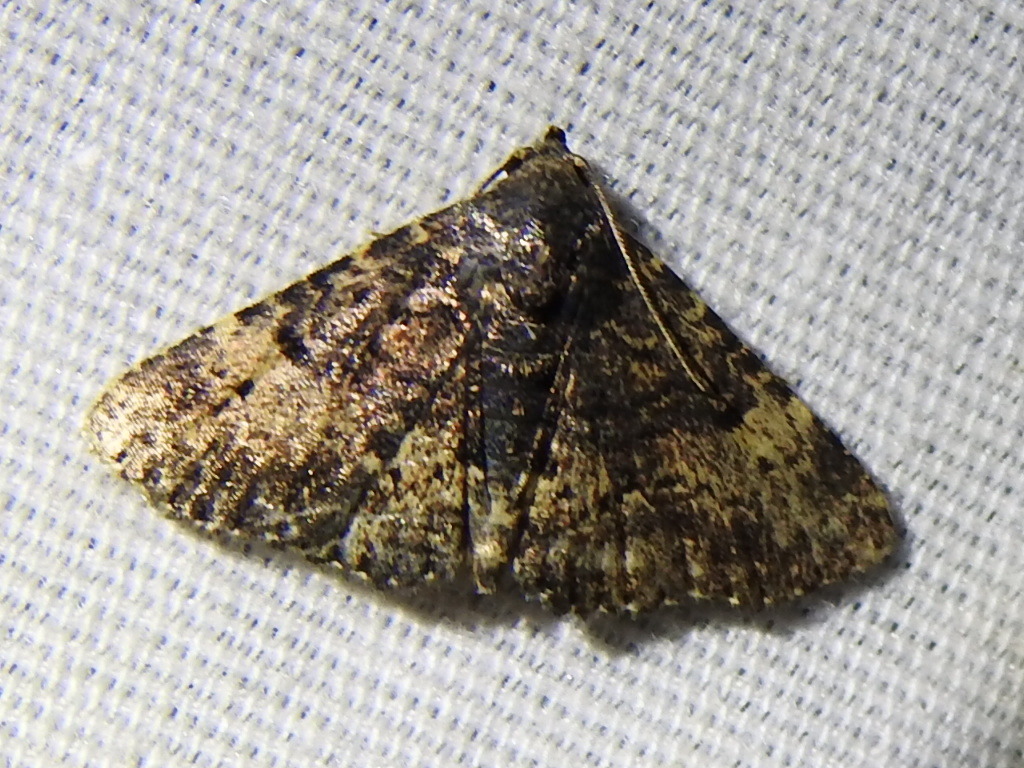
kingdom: Animalia
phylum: Arthropoda
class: Insecta
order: Lepidoptera
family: Erebidae
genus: Metalectra
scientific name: Metalectra diabolica
